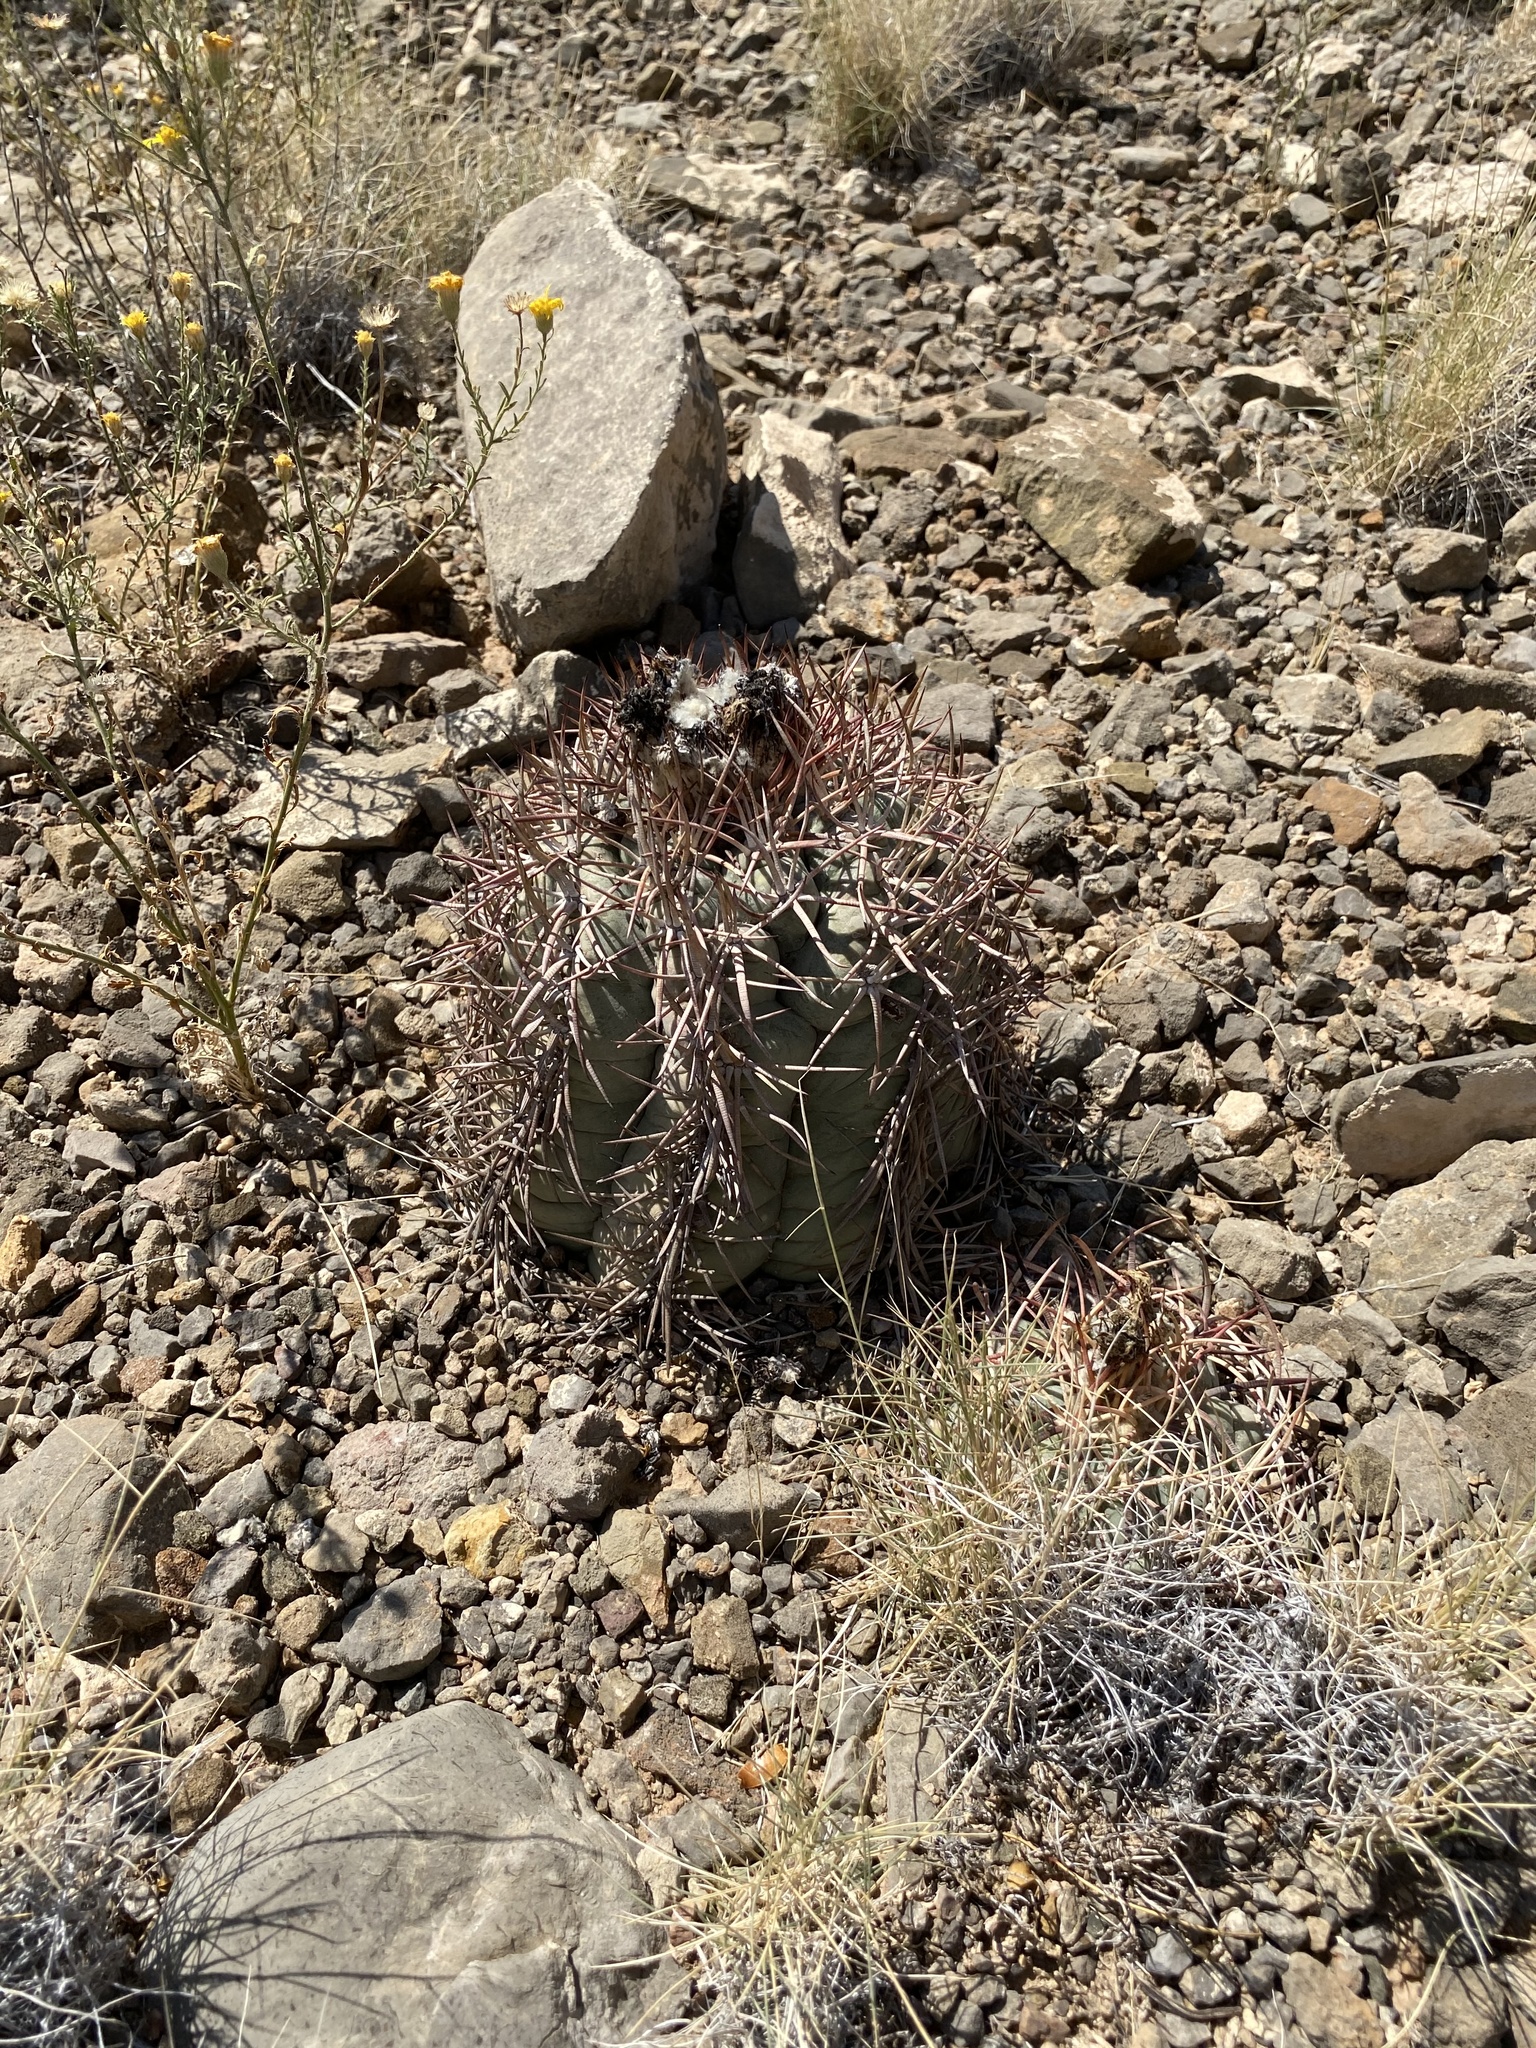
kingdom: Plantae
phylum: Tracheophyta
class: Magnoliopsida
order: Caryophyllales
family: Cactaceae
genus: Echinocactus
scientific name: Echinocactus horizonthalonius
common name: Devilshead
